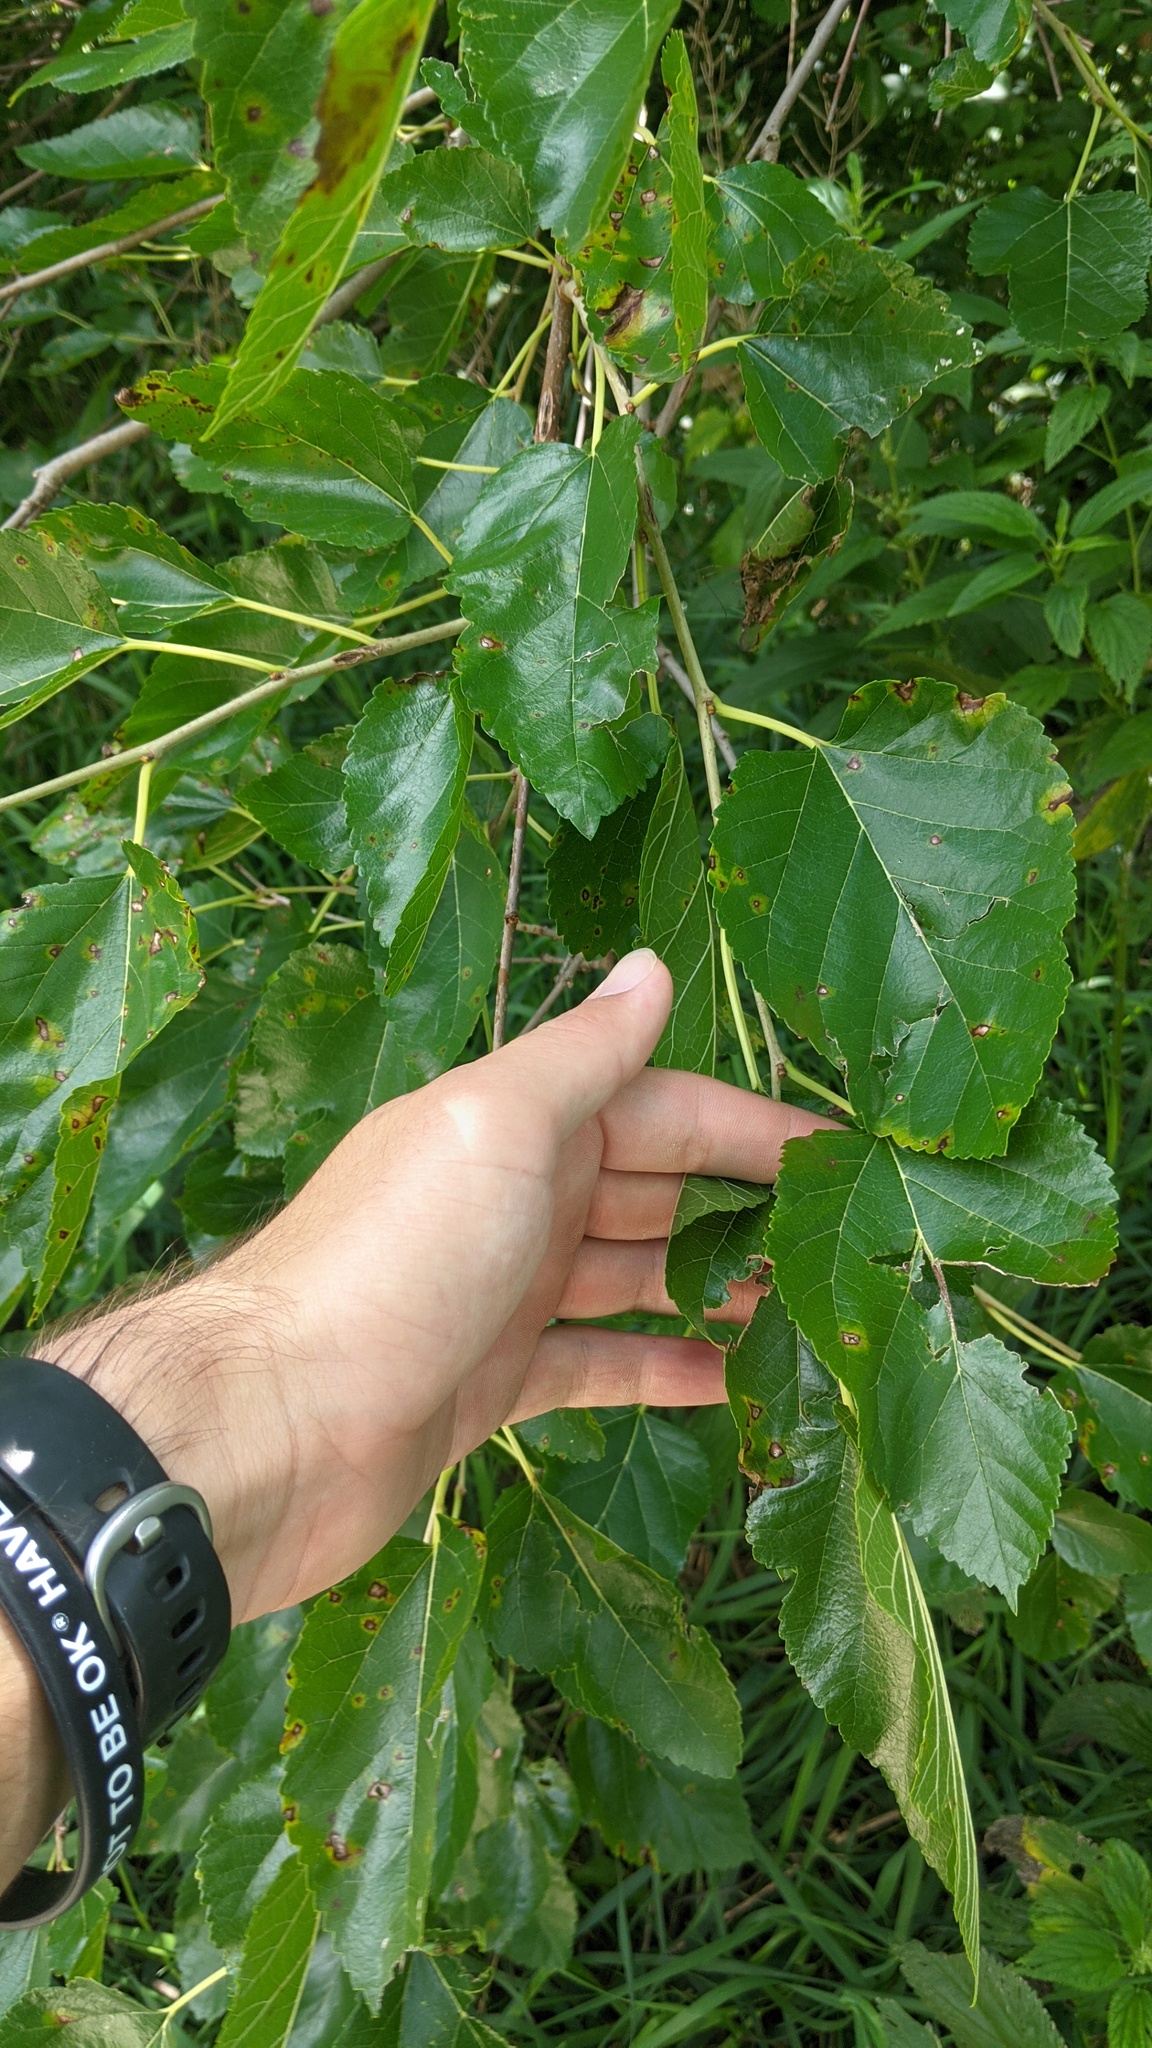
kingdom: Plantae
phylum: Tracheophyta
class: Magnoliopsida
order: Rosales
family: Moraceae
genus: Morus
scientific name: Morus alba
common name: White mulberry
